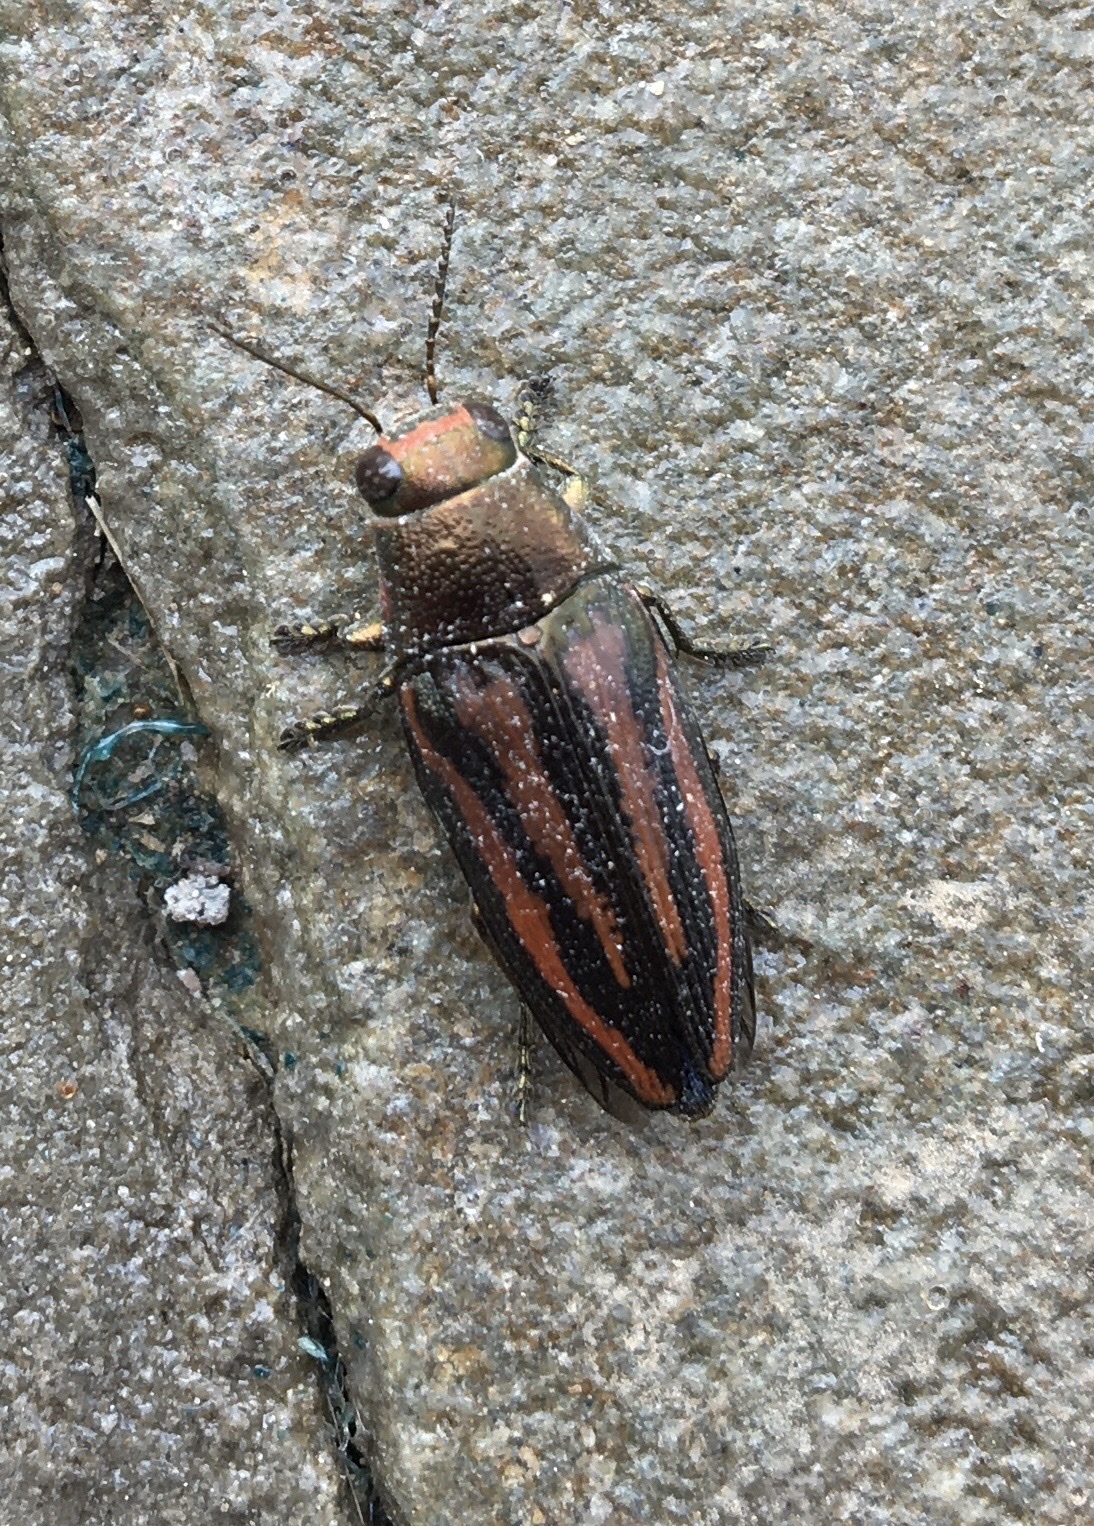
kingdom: Animalia
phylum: Arthropoda
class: Insecta
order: Coleoptera
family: Buprestidae
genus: Buprestis
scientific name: Buprestis lineata
